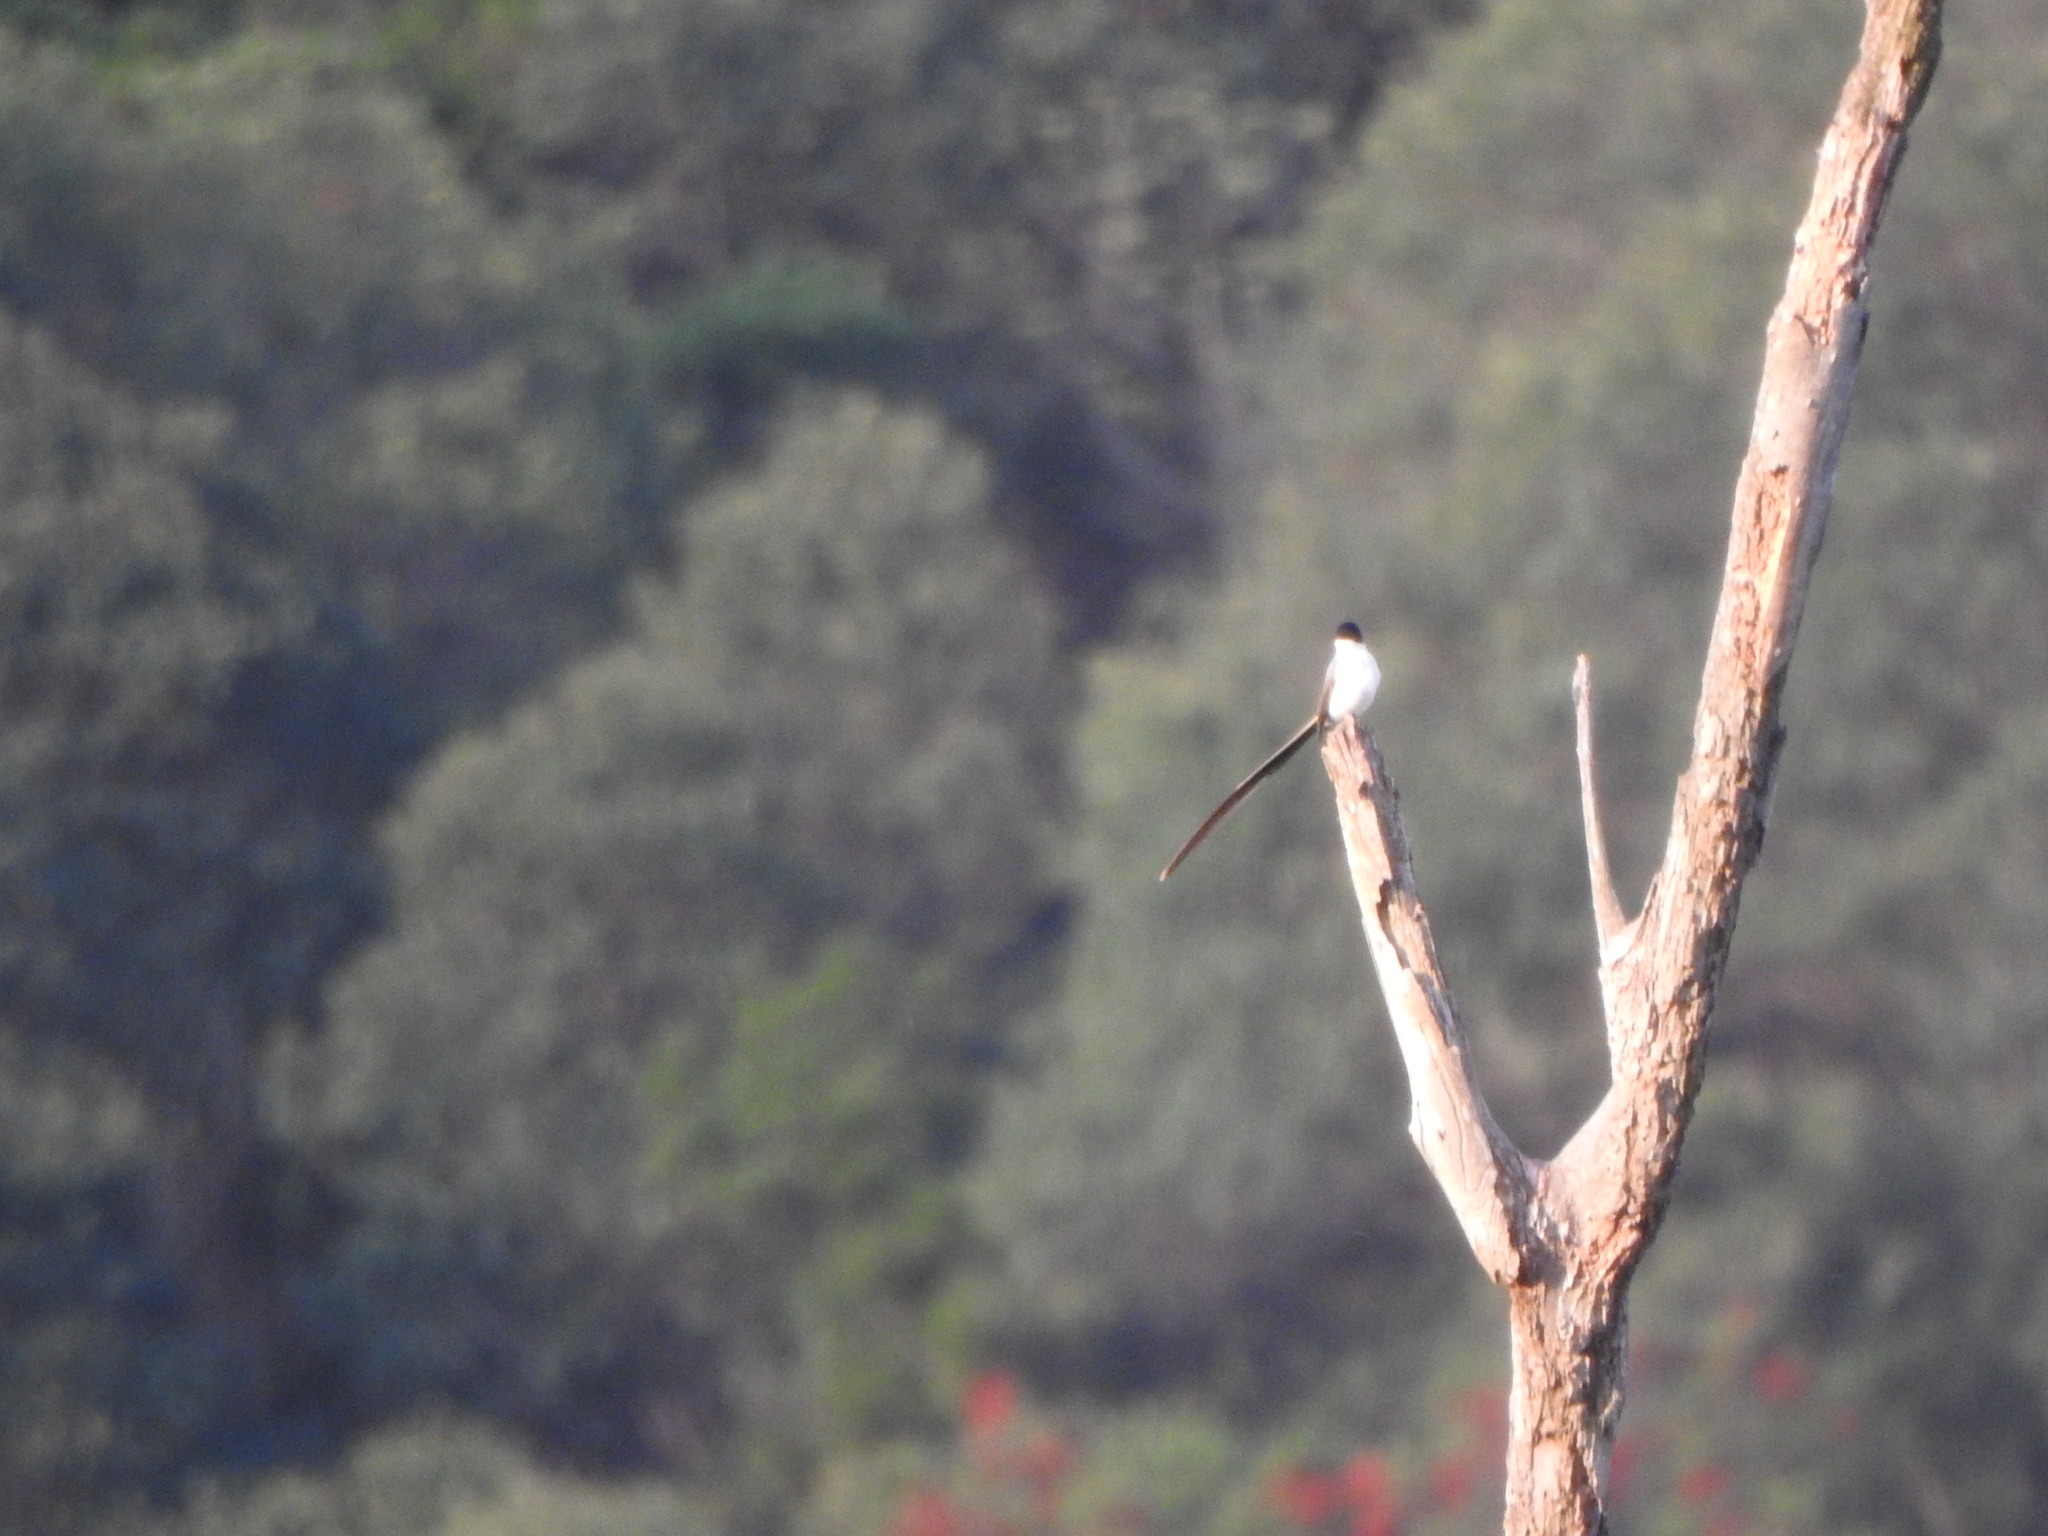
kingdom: Animalia
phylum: Chordata
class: Aves
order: Passeriformes
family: Tyrannidae
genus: Tyrannus
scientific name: Tyrannus savana
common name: Fork-tailed flycatcher
